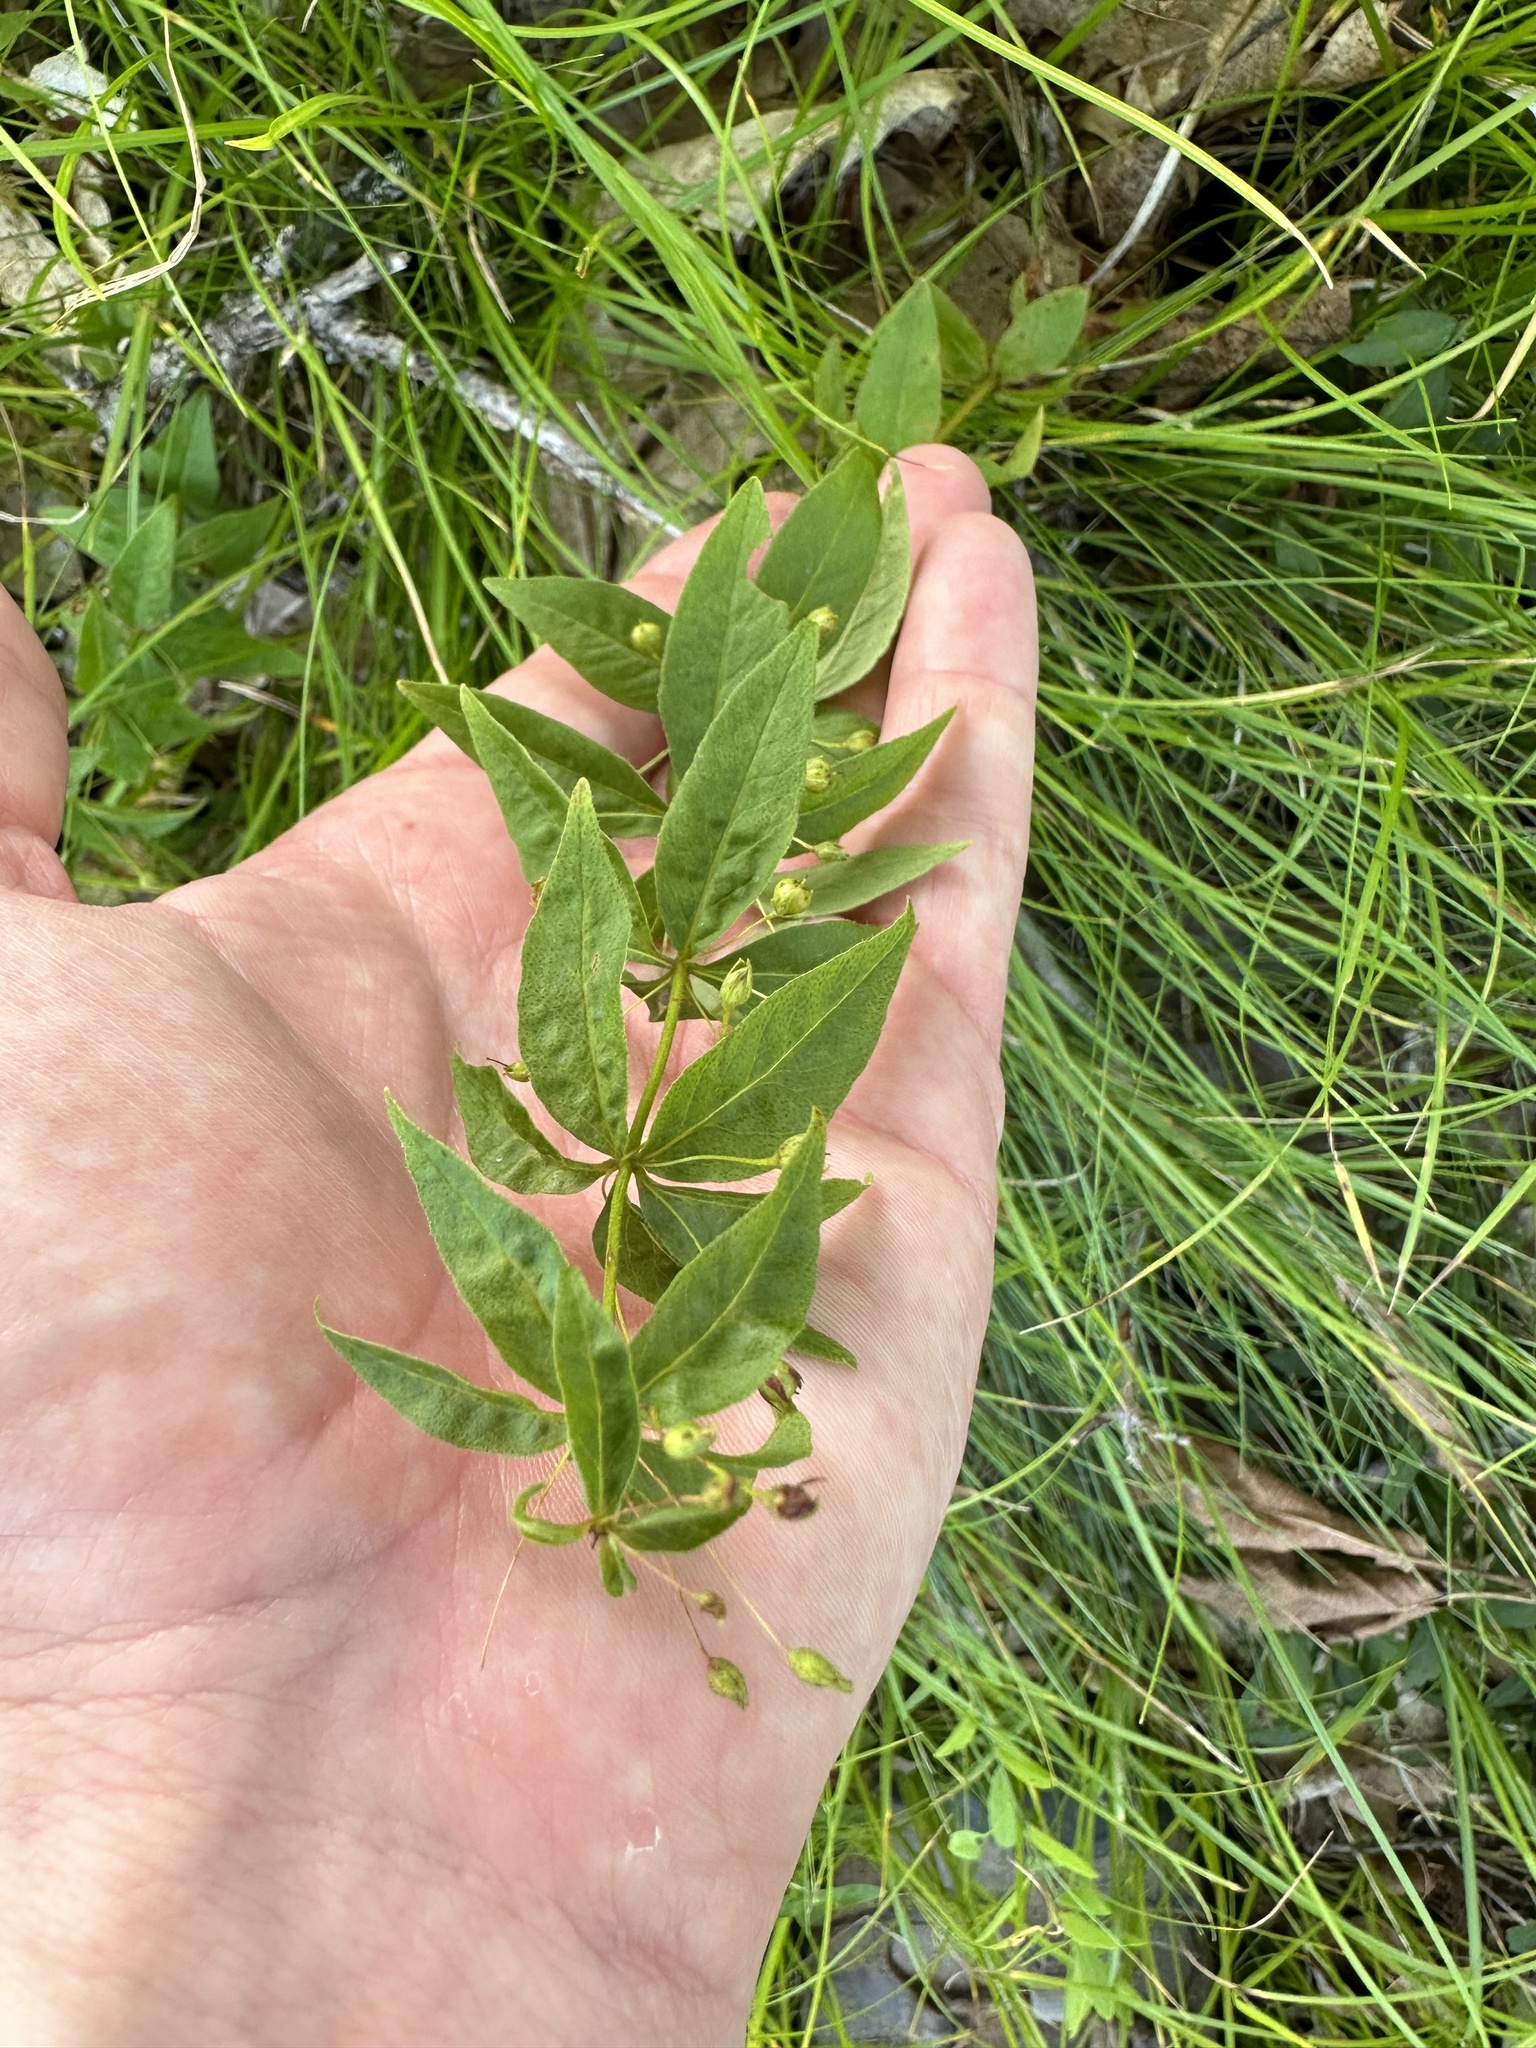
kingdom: Plantae
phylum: Tracheophyta
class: Magnoliopsida
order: Ericales
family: Primulaceae
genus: Lysimachia
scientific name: Lysimachia quadrifolia
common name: Whorled loosestrife
